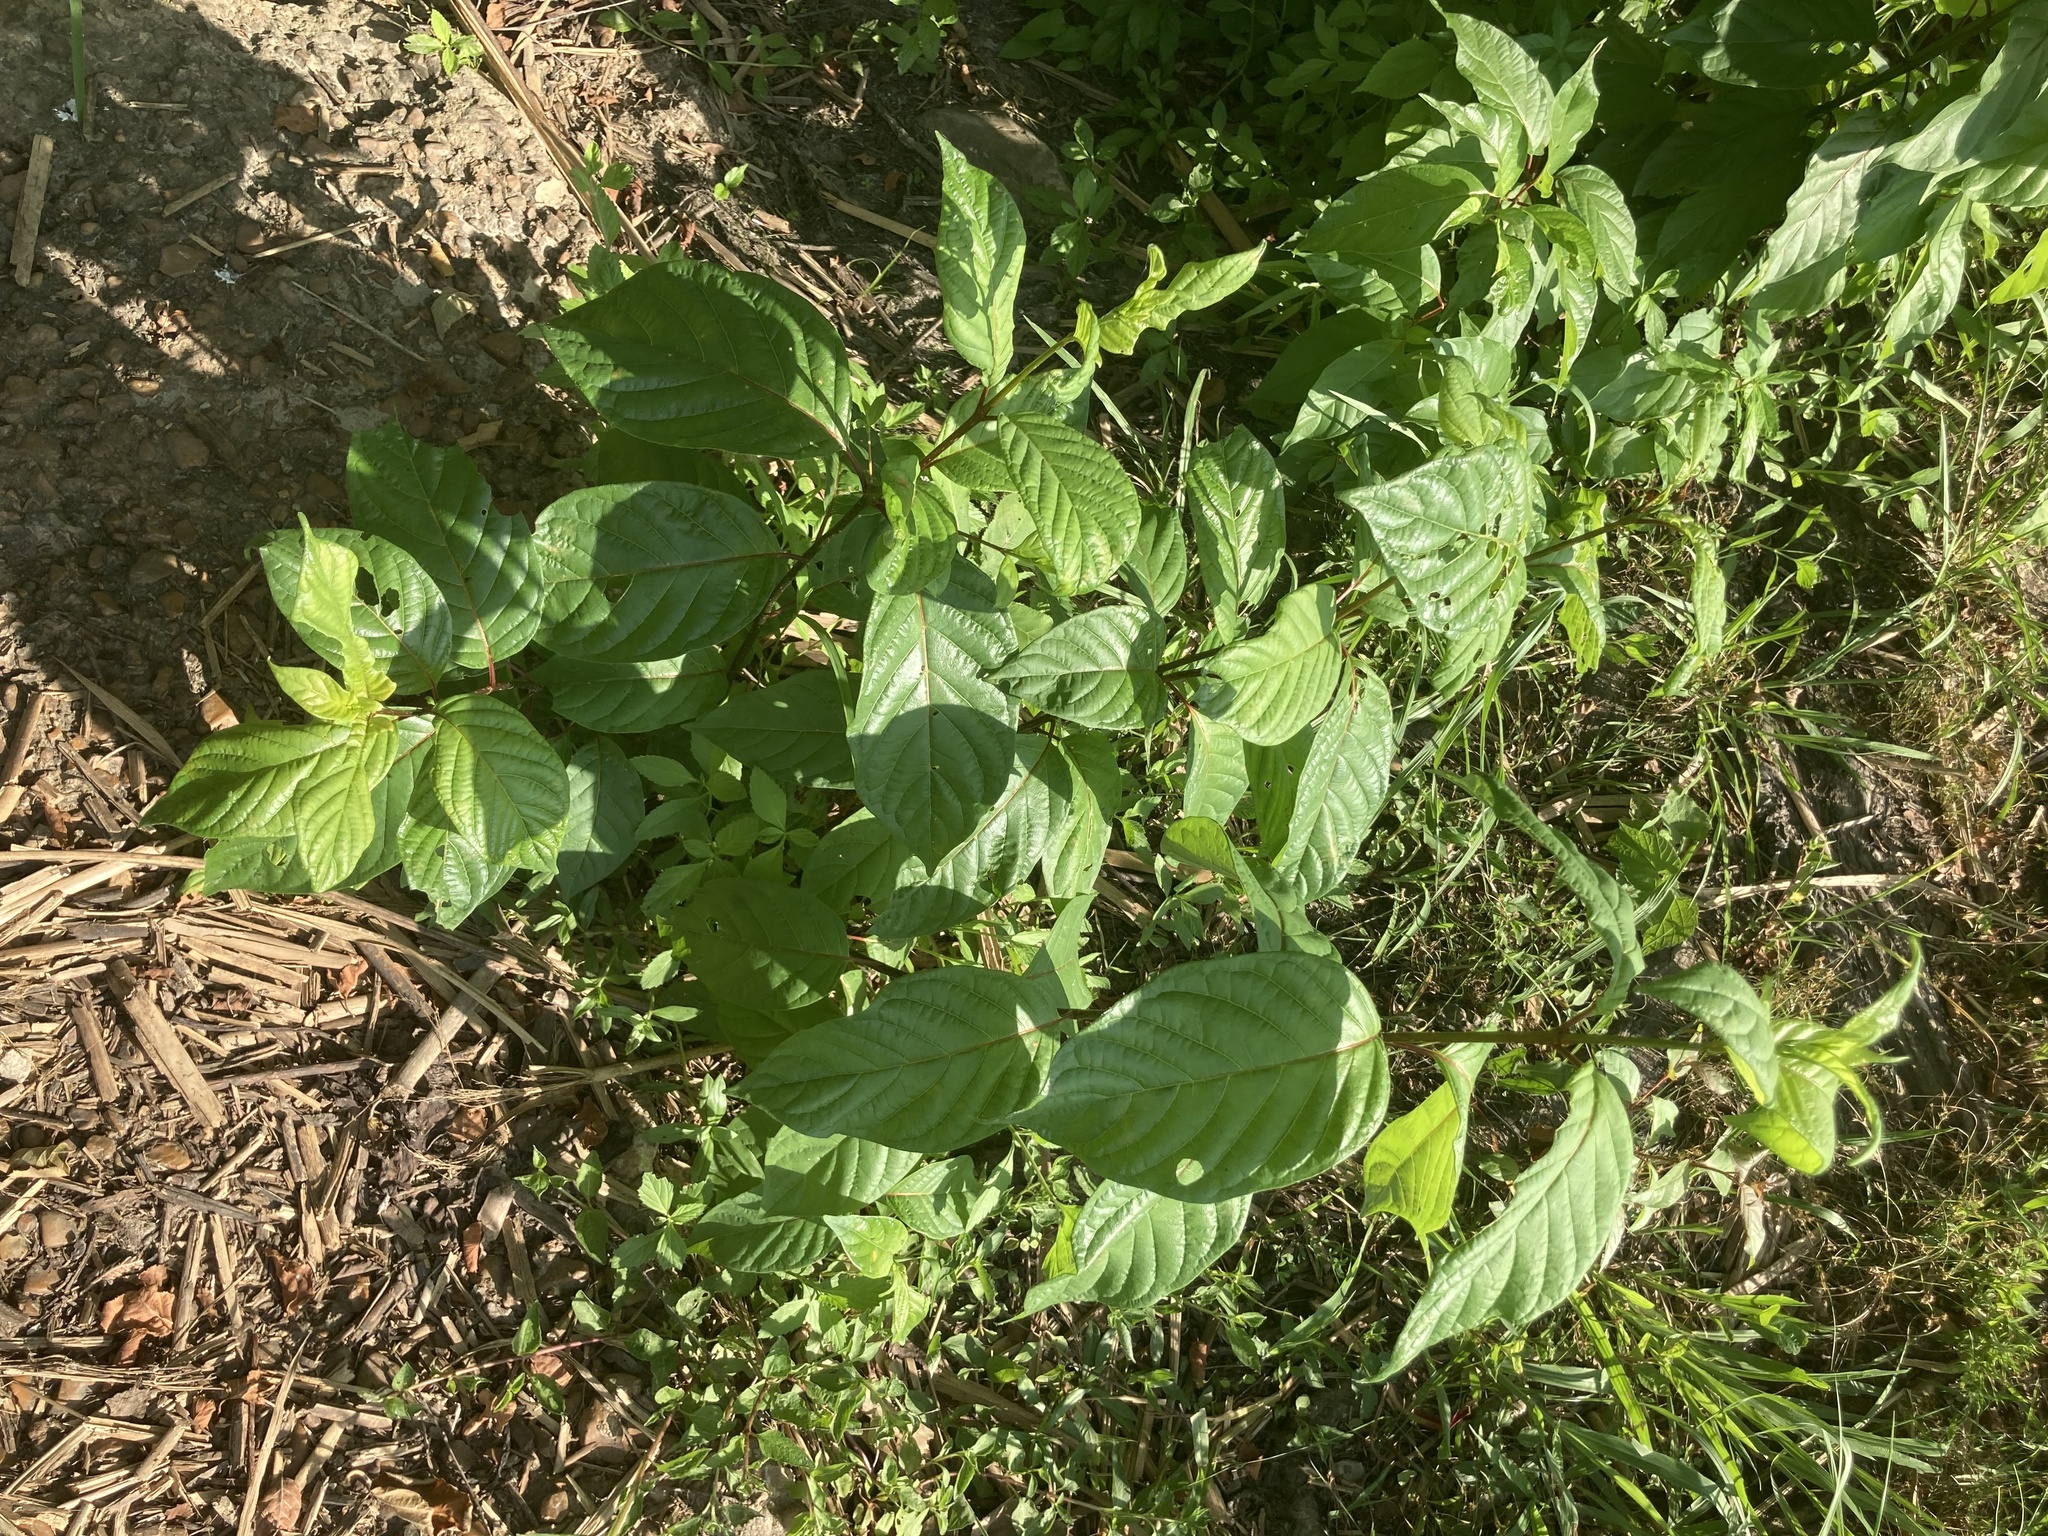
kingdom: Plantae
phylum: Tracheophyta
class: Magnoliopsida
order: Gentianales
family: Rubiaceae
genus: Cephalanthus
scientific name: Cephalanthus occidentalis
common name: Button-willow
